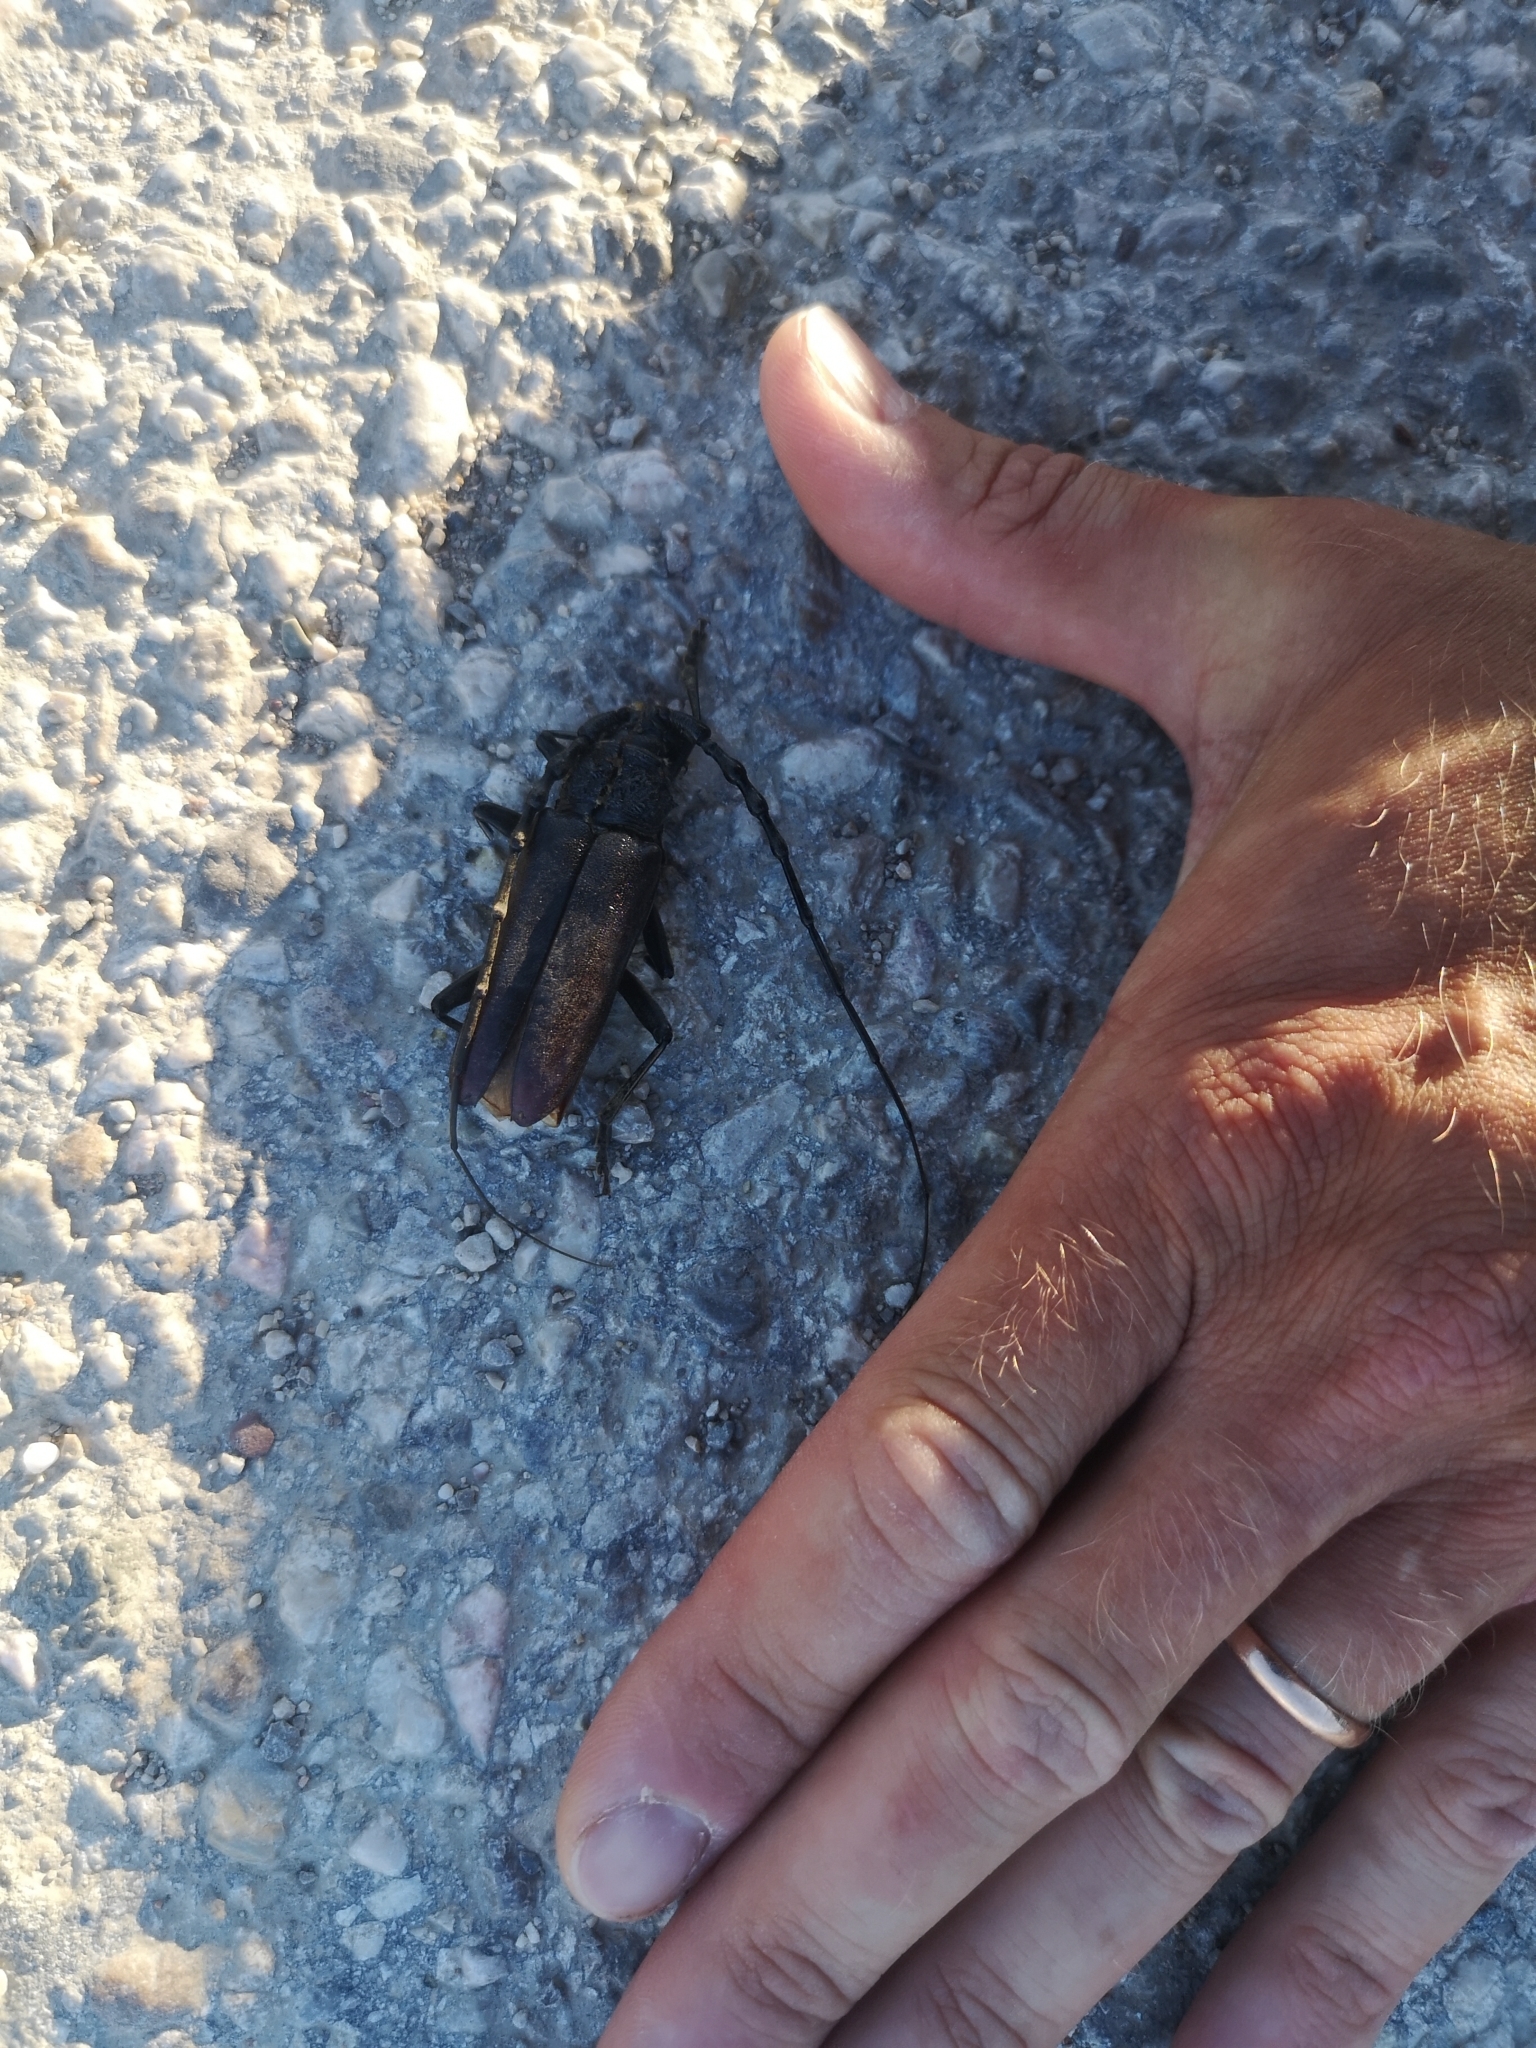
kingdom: Animalia
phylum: Arthropoda
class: Insecta
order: Coleoptera
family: Cerambycidae
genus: Cerambyx
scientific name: Cerambyx welensii
